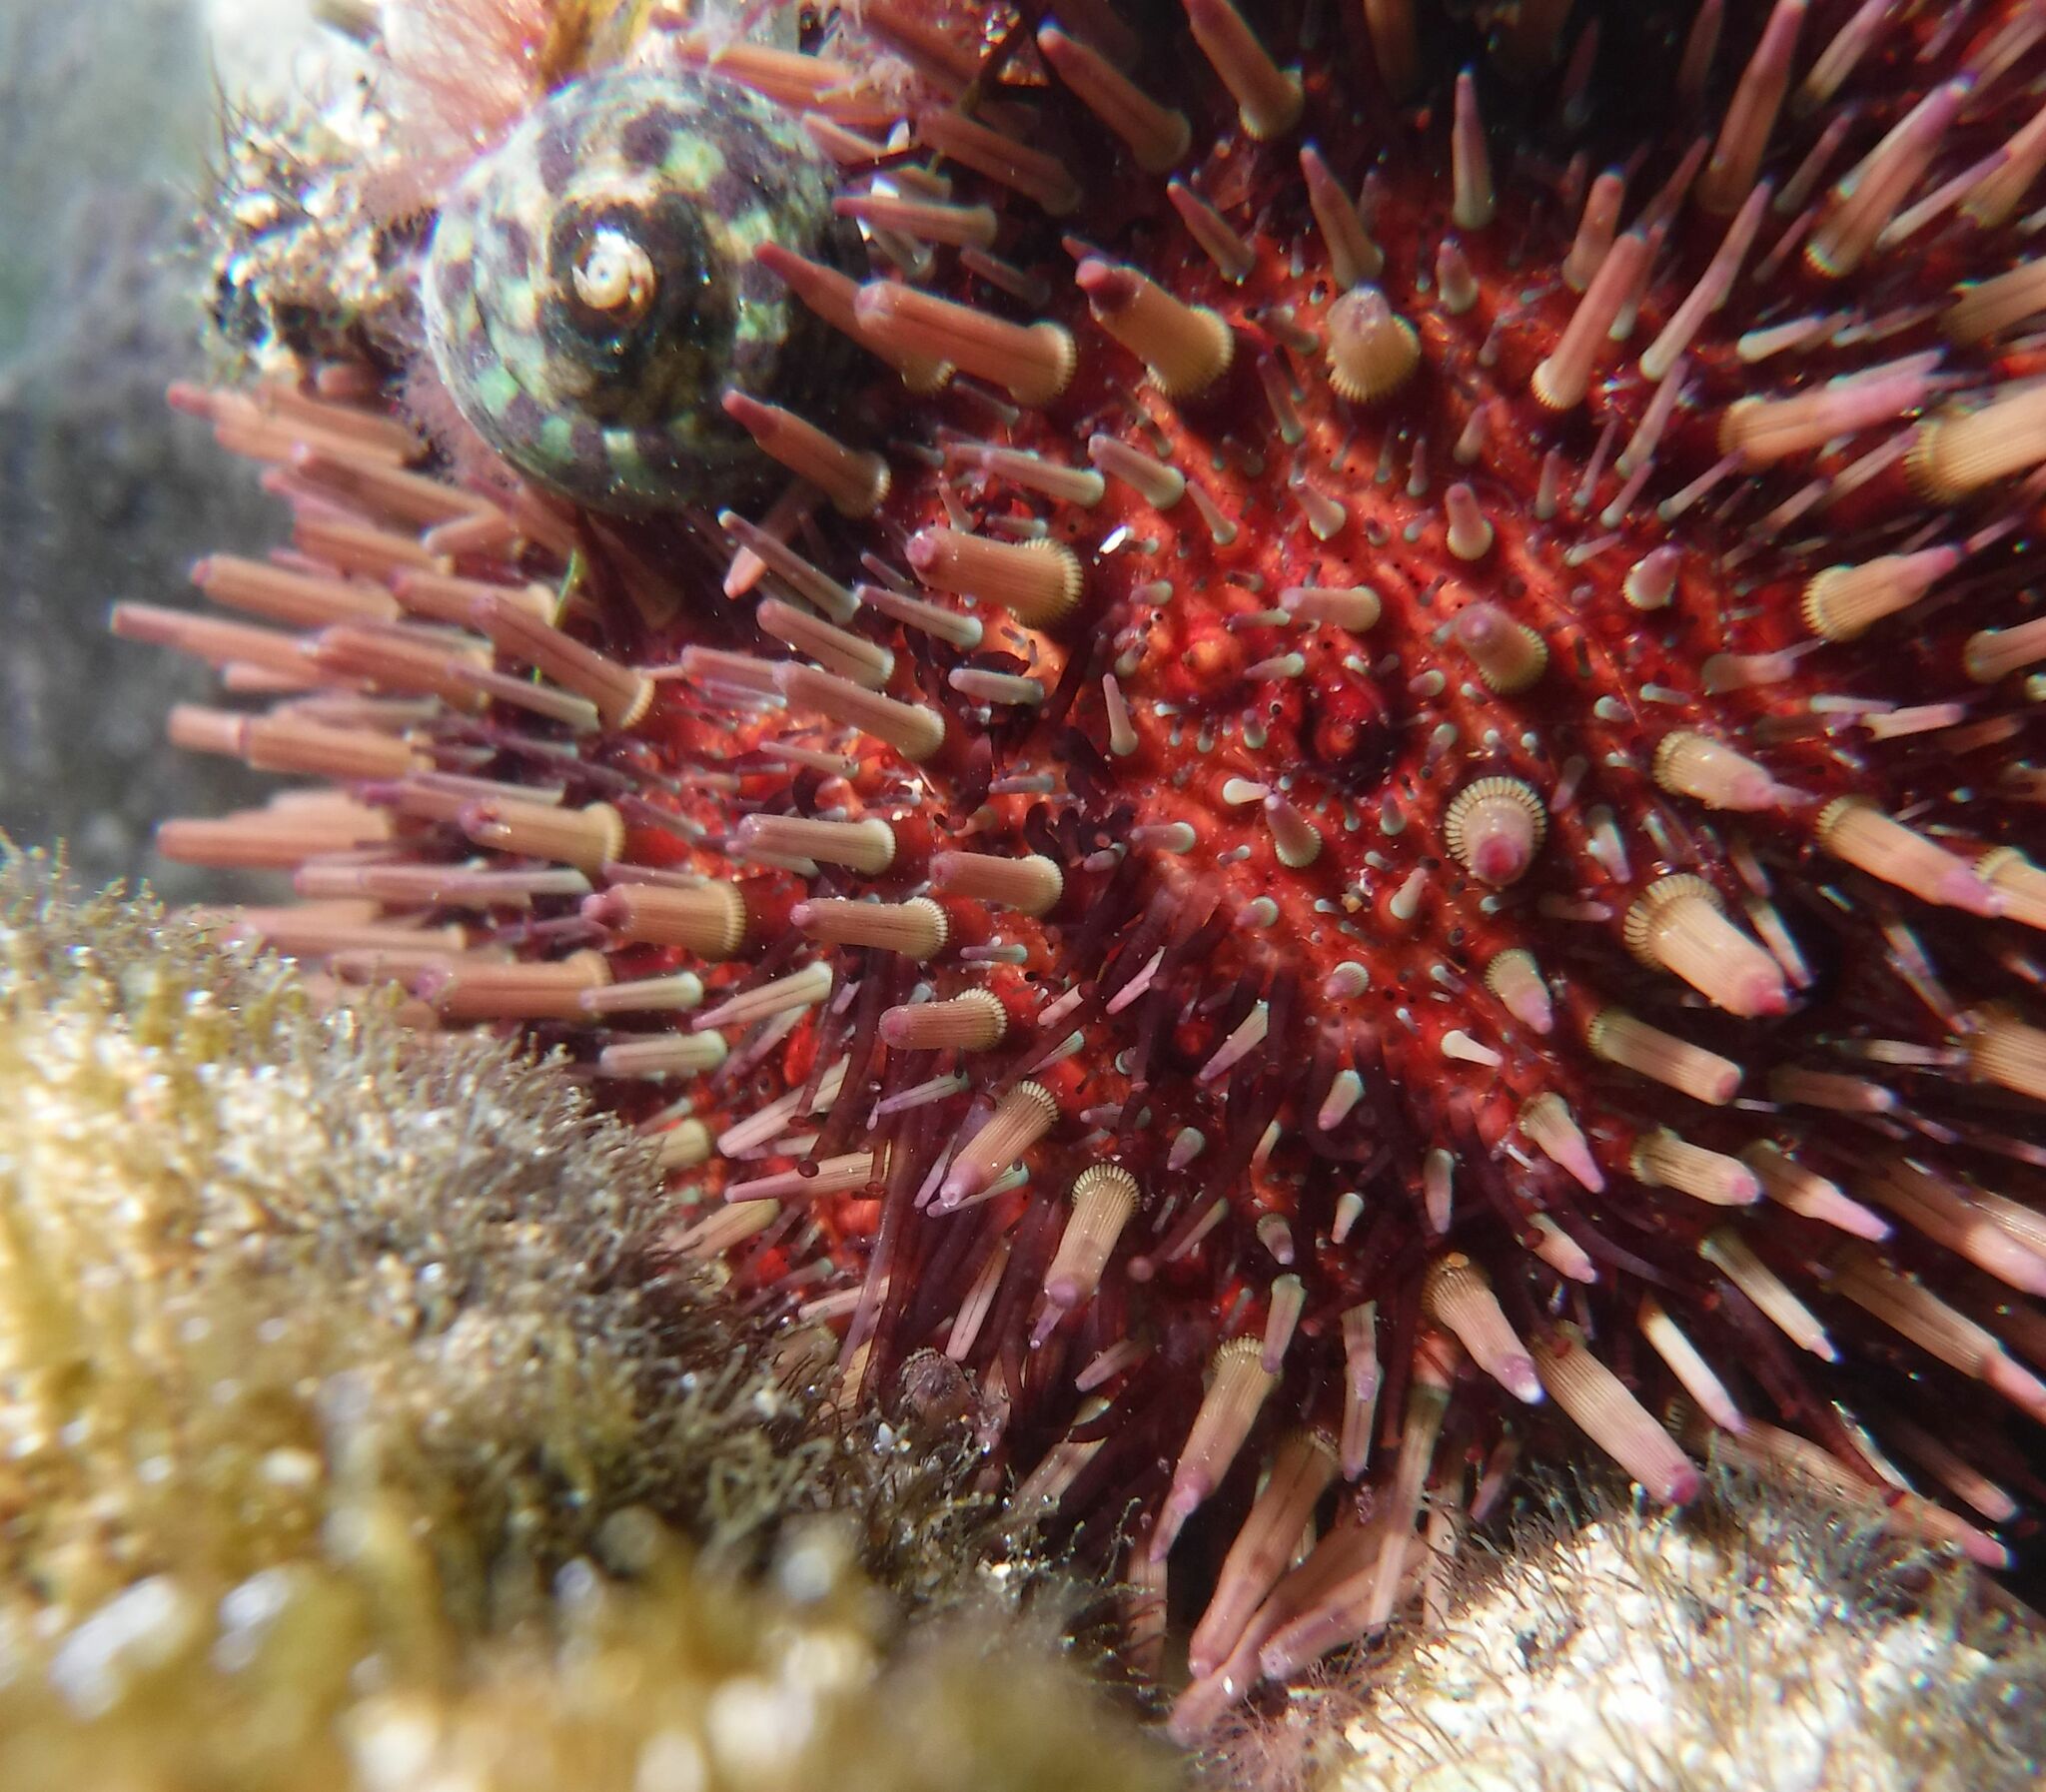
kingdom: Animalia
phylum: Echinodermata
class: Echinoidea
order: Camarodonta
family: Parechinidae
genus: Paracentrotus
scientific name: Paracentrotus lividus
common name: Purple sea urchin
